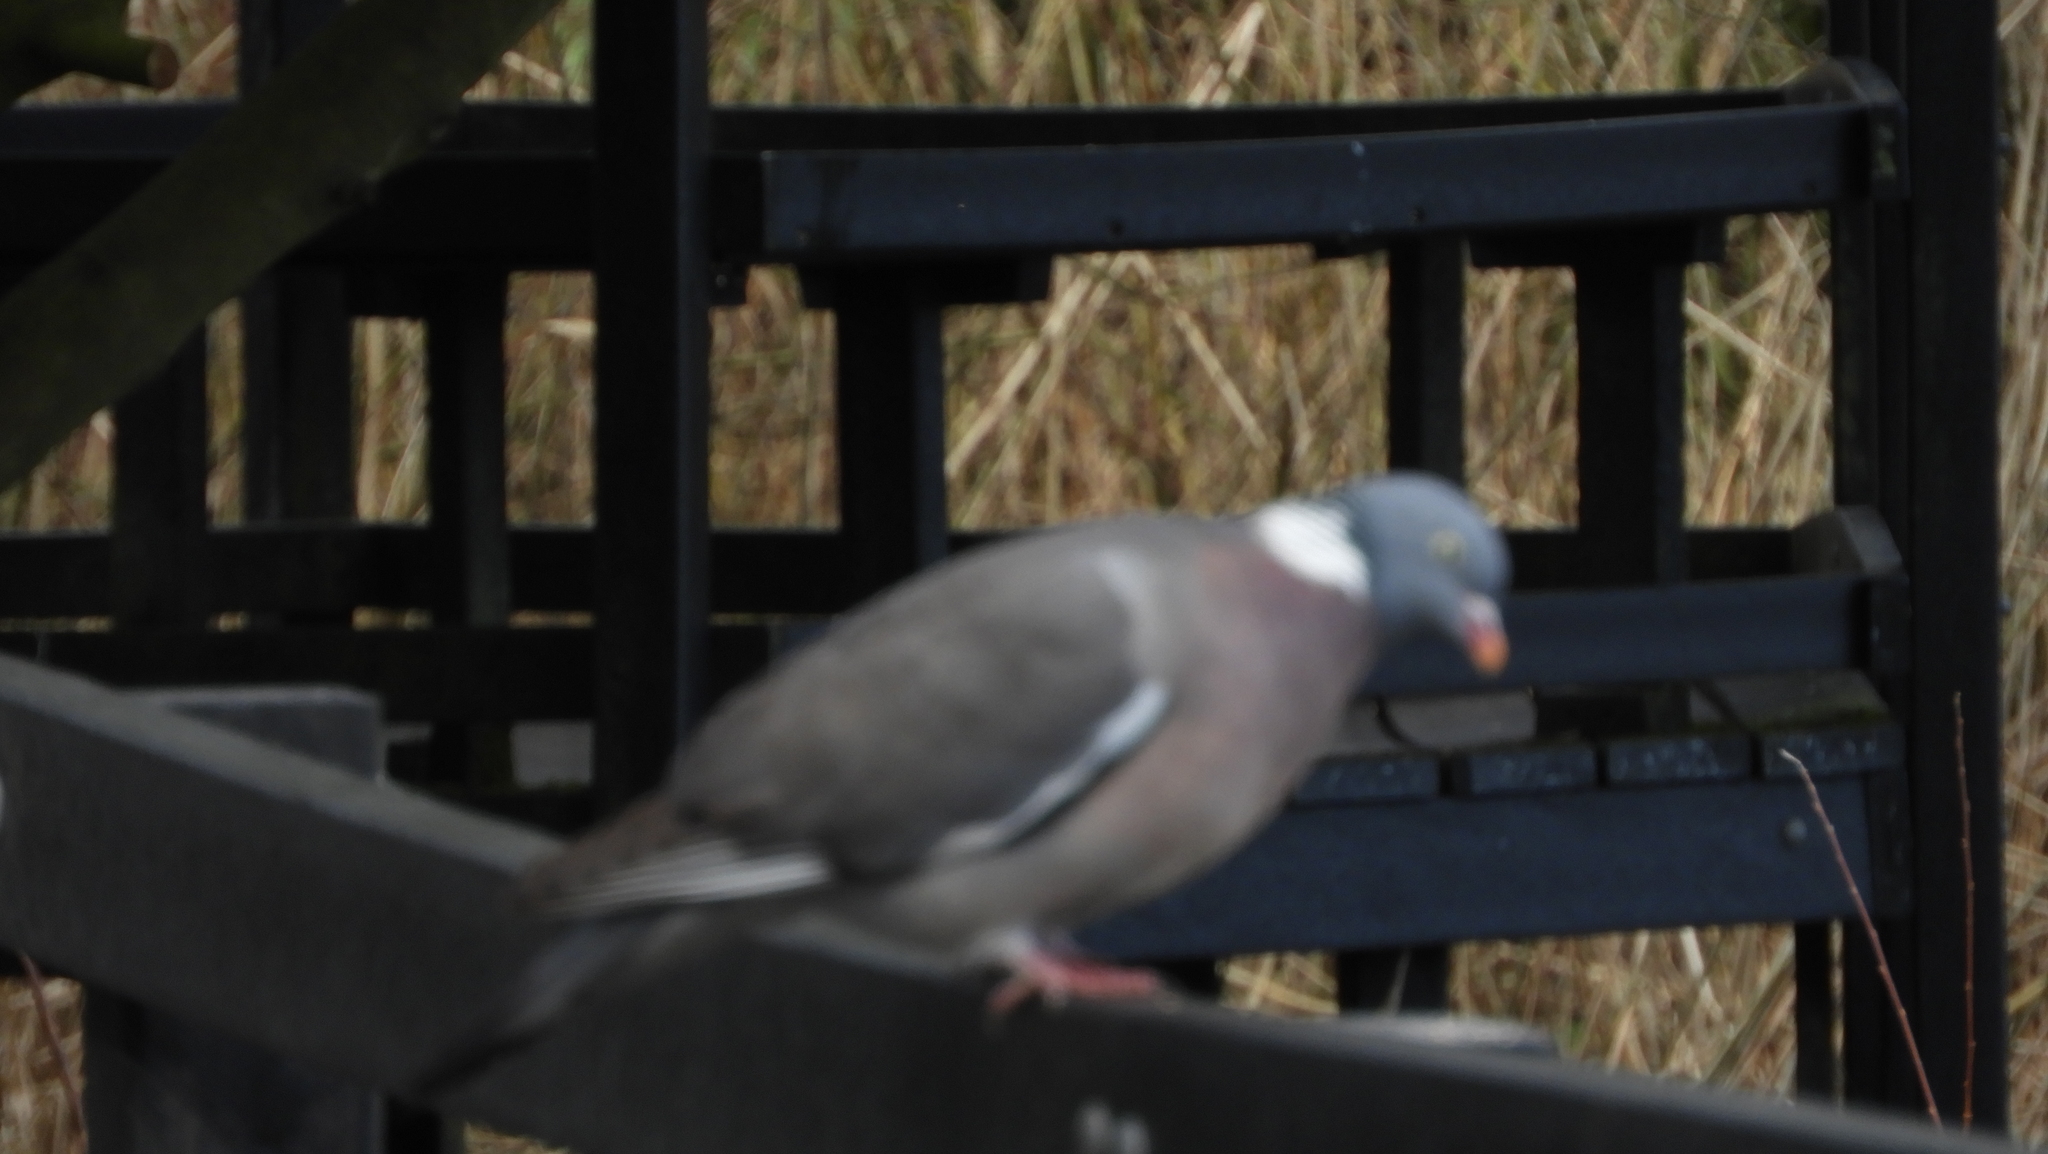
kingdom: Animalia
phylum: Chordata
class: Aves
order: Columbiformes
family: Columbidae
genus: Columba
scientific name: Columba palumbus
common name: Common wood pigeon
